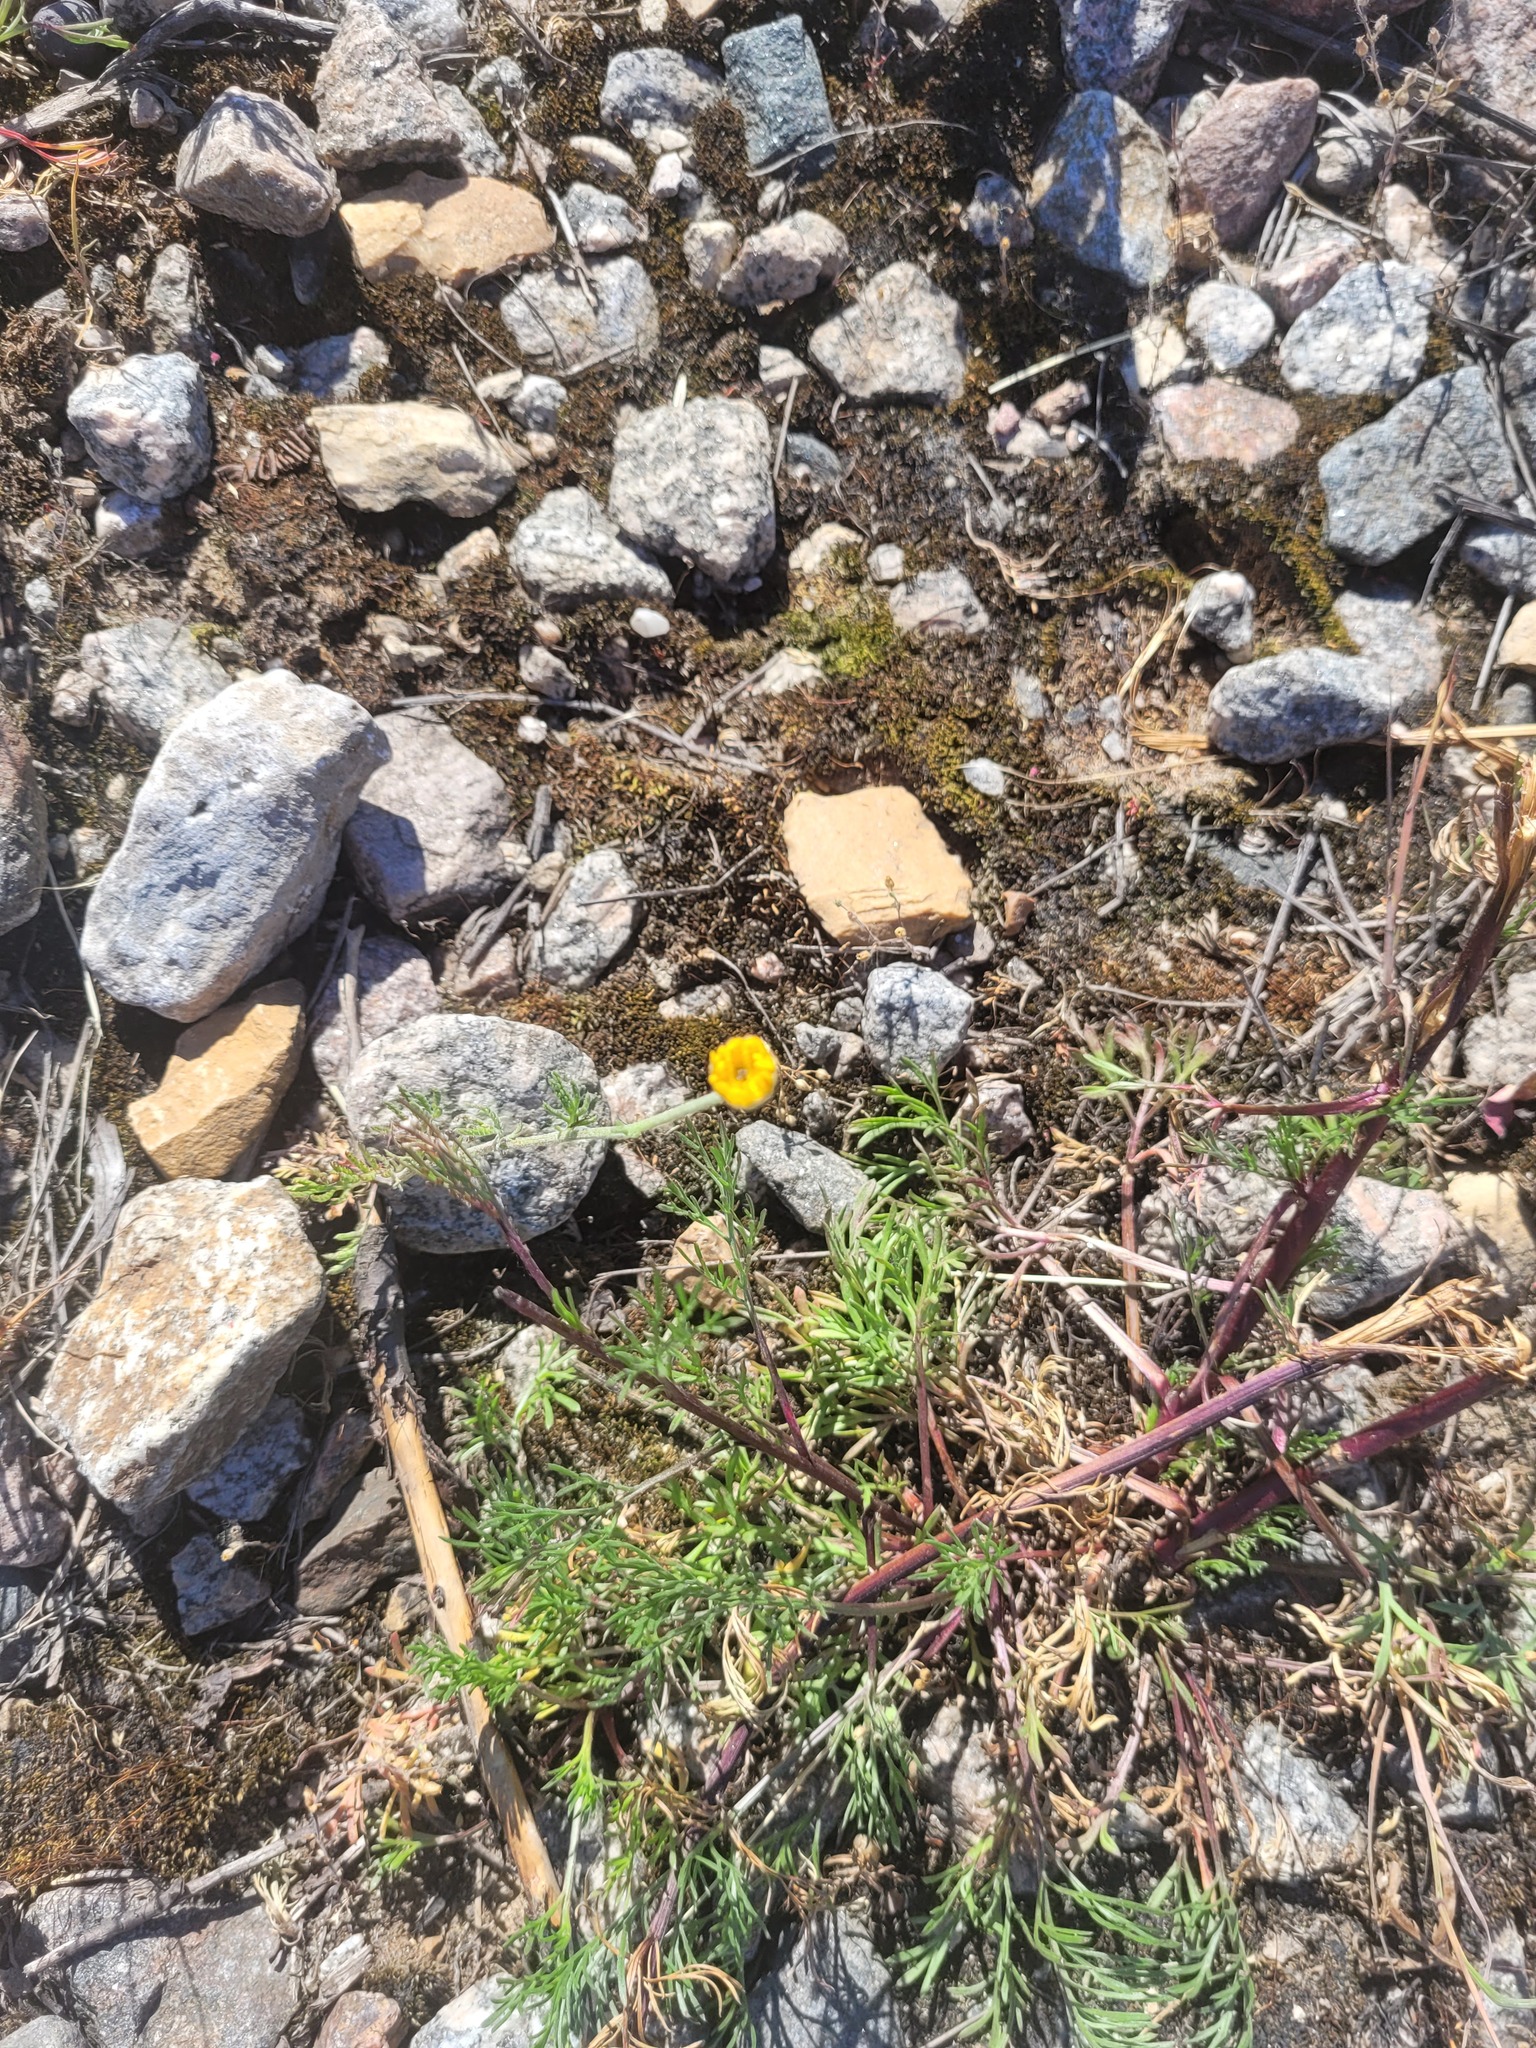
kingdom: Plantae
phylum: Tracheophyta
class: Magnoliopsida
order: Asterales
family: Asteraceae
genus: Cota
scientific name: Cota tinctoria
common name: Golden chamomile
